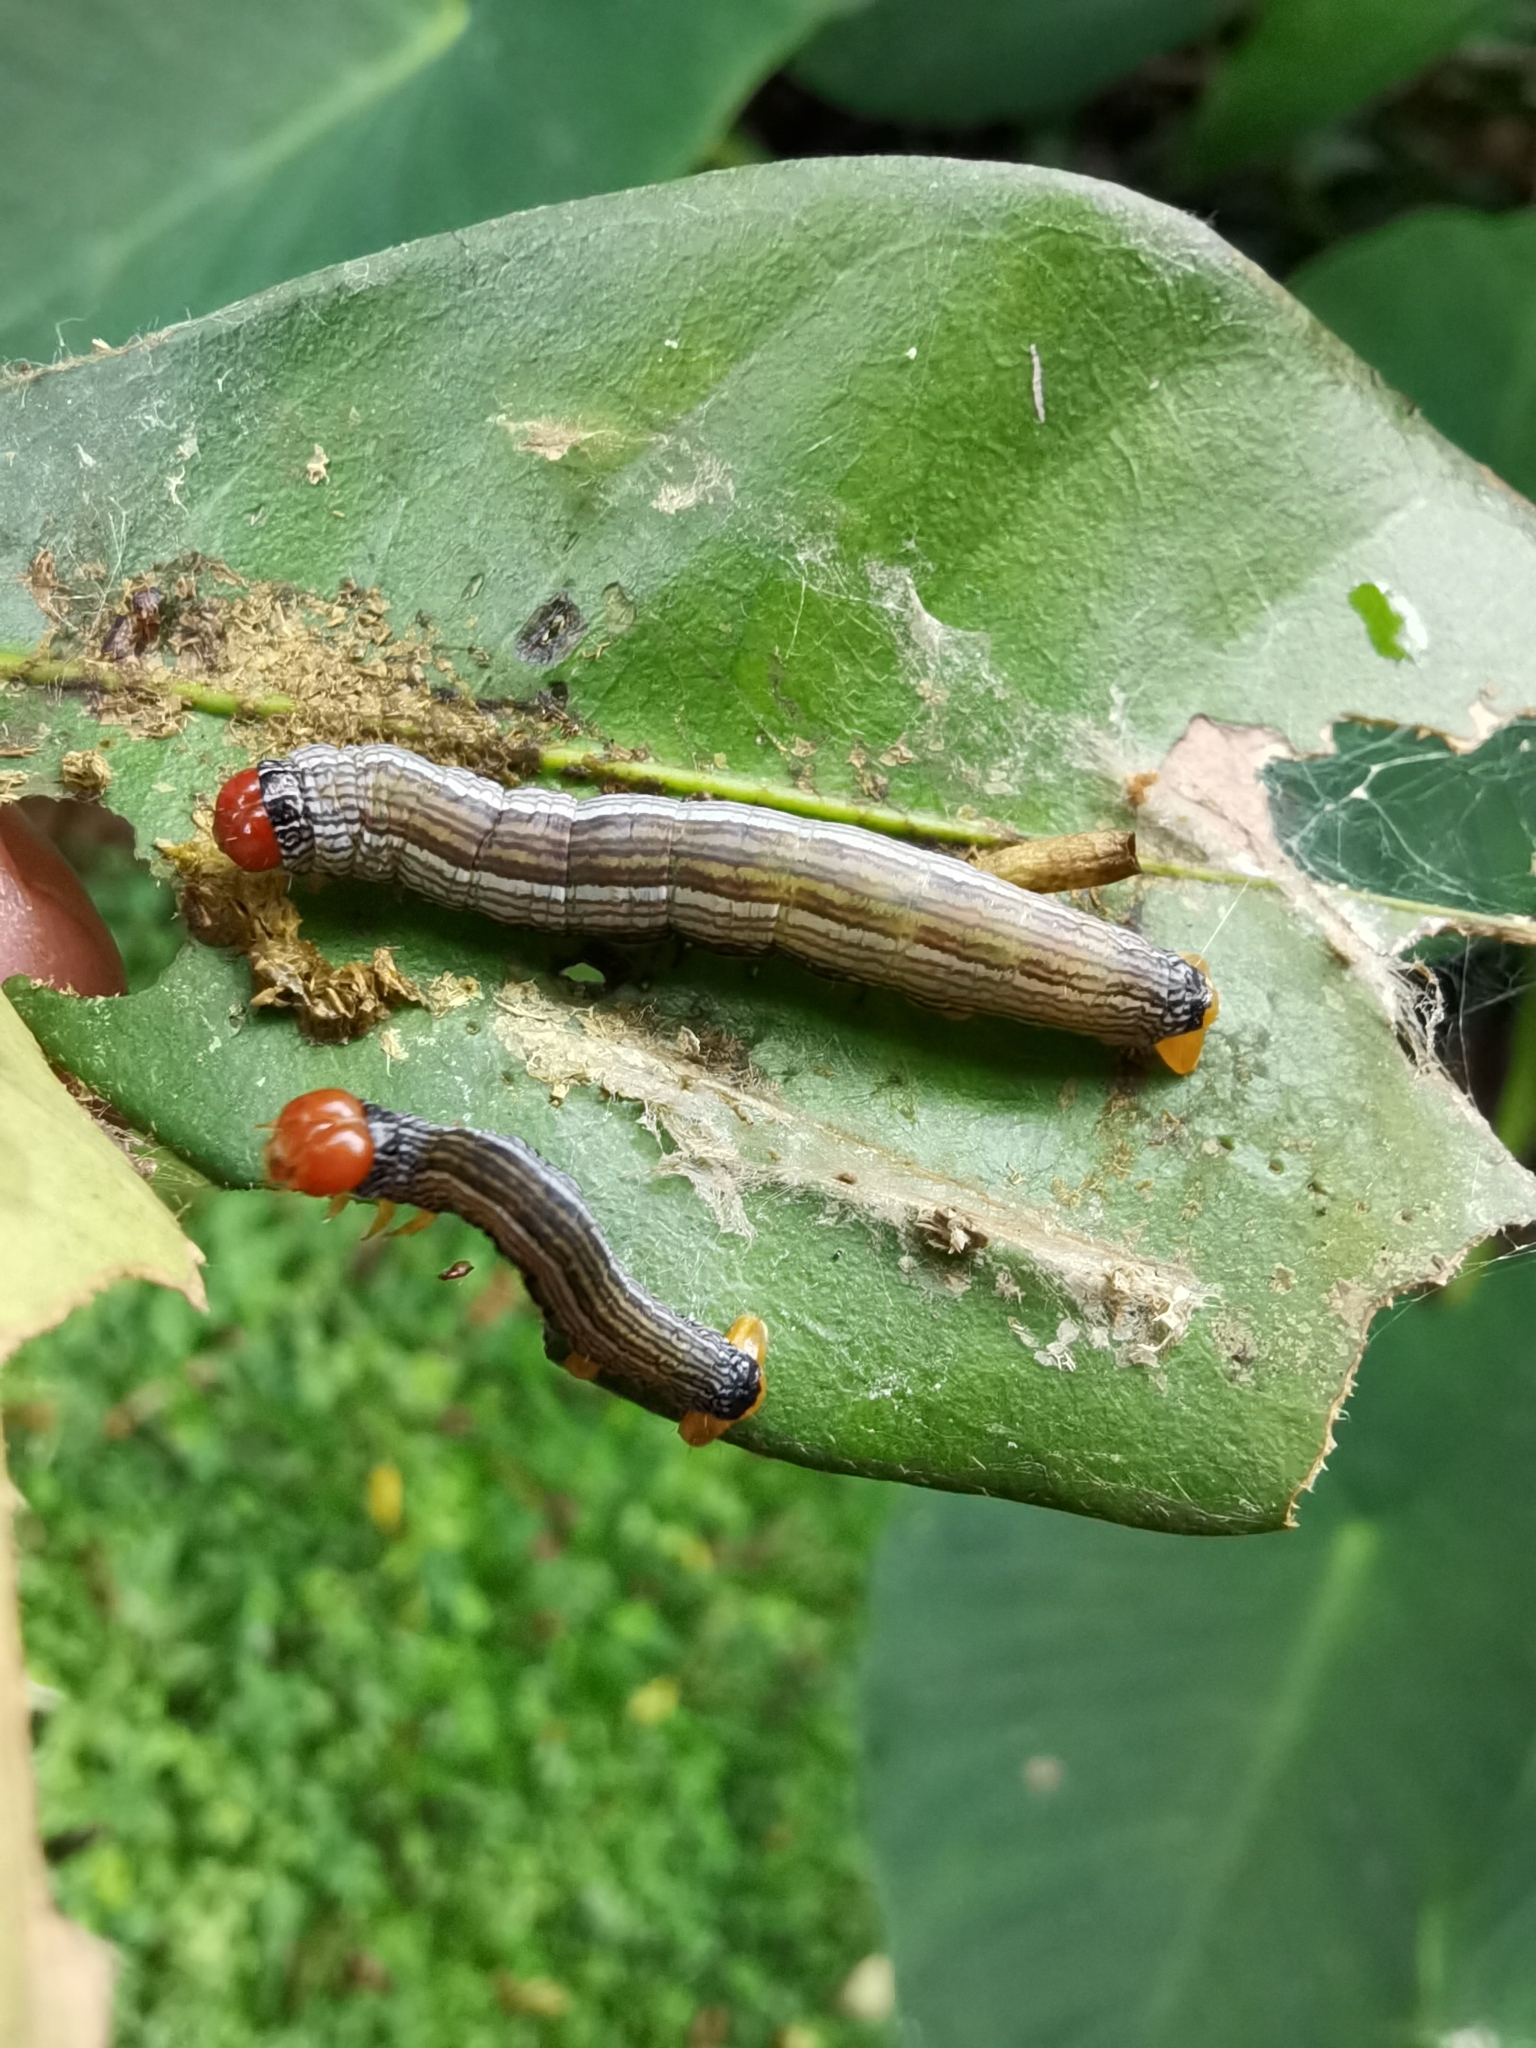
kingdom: Animalia
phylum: Arthropoda
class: Insecta
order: Lepidoptera
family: Geometridae
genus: Himeromima
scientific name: Himeromima aulis
